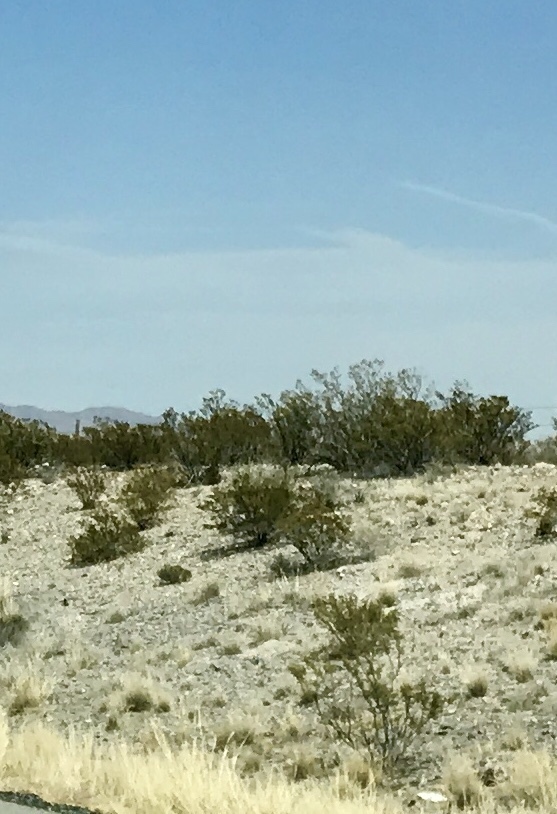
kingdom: Plantae
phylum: Tracheophyta
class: Magnoliopsida
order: Zygophyllales
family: Zygophyllaceae
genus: Larrea
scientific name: Larrea tridentata
